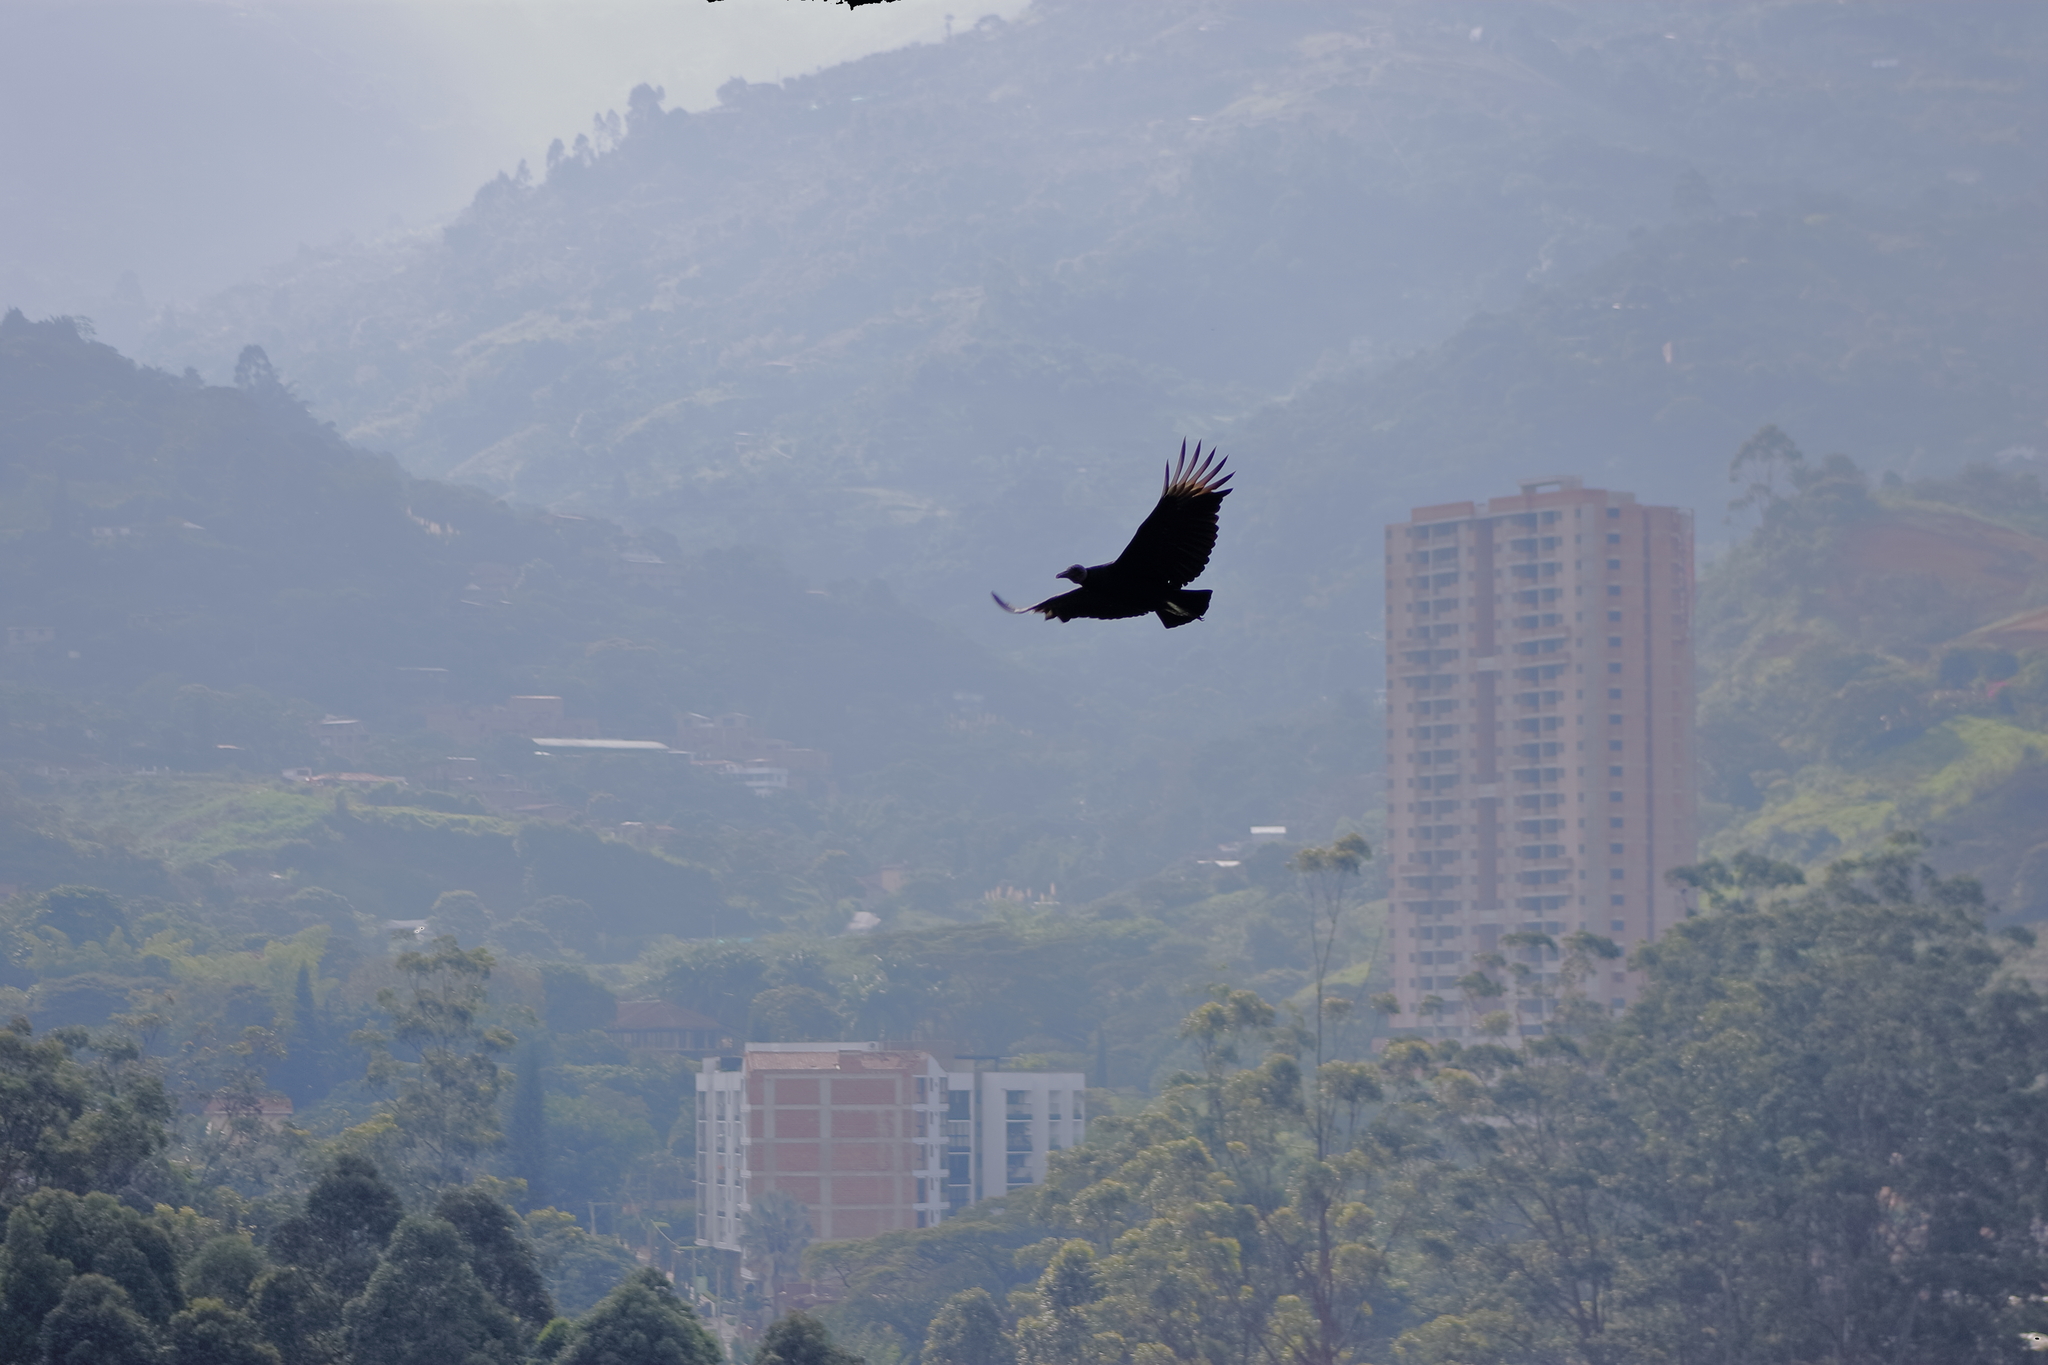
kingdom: Animalia
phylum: Chordata
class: Aves
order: Accipitriformes
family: Cathartidae
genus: Coragyps
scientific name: Coragyps atratus
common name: Black vulture
